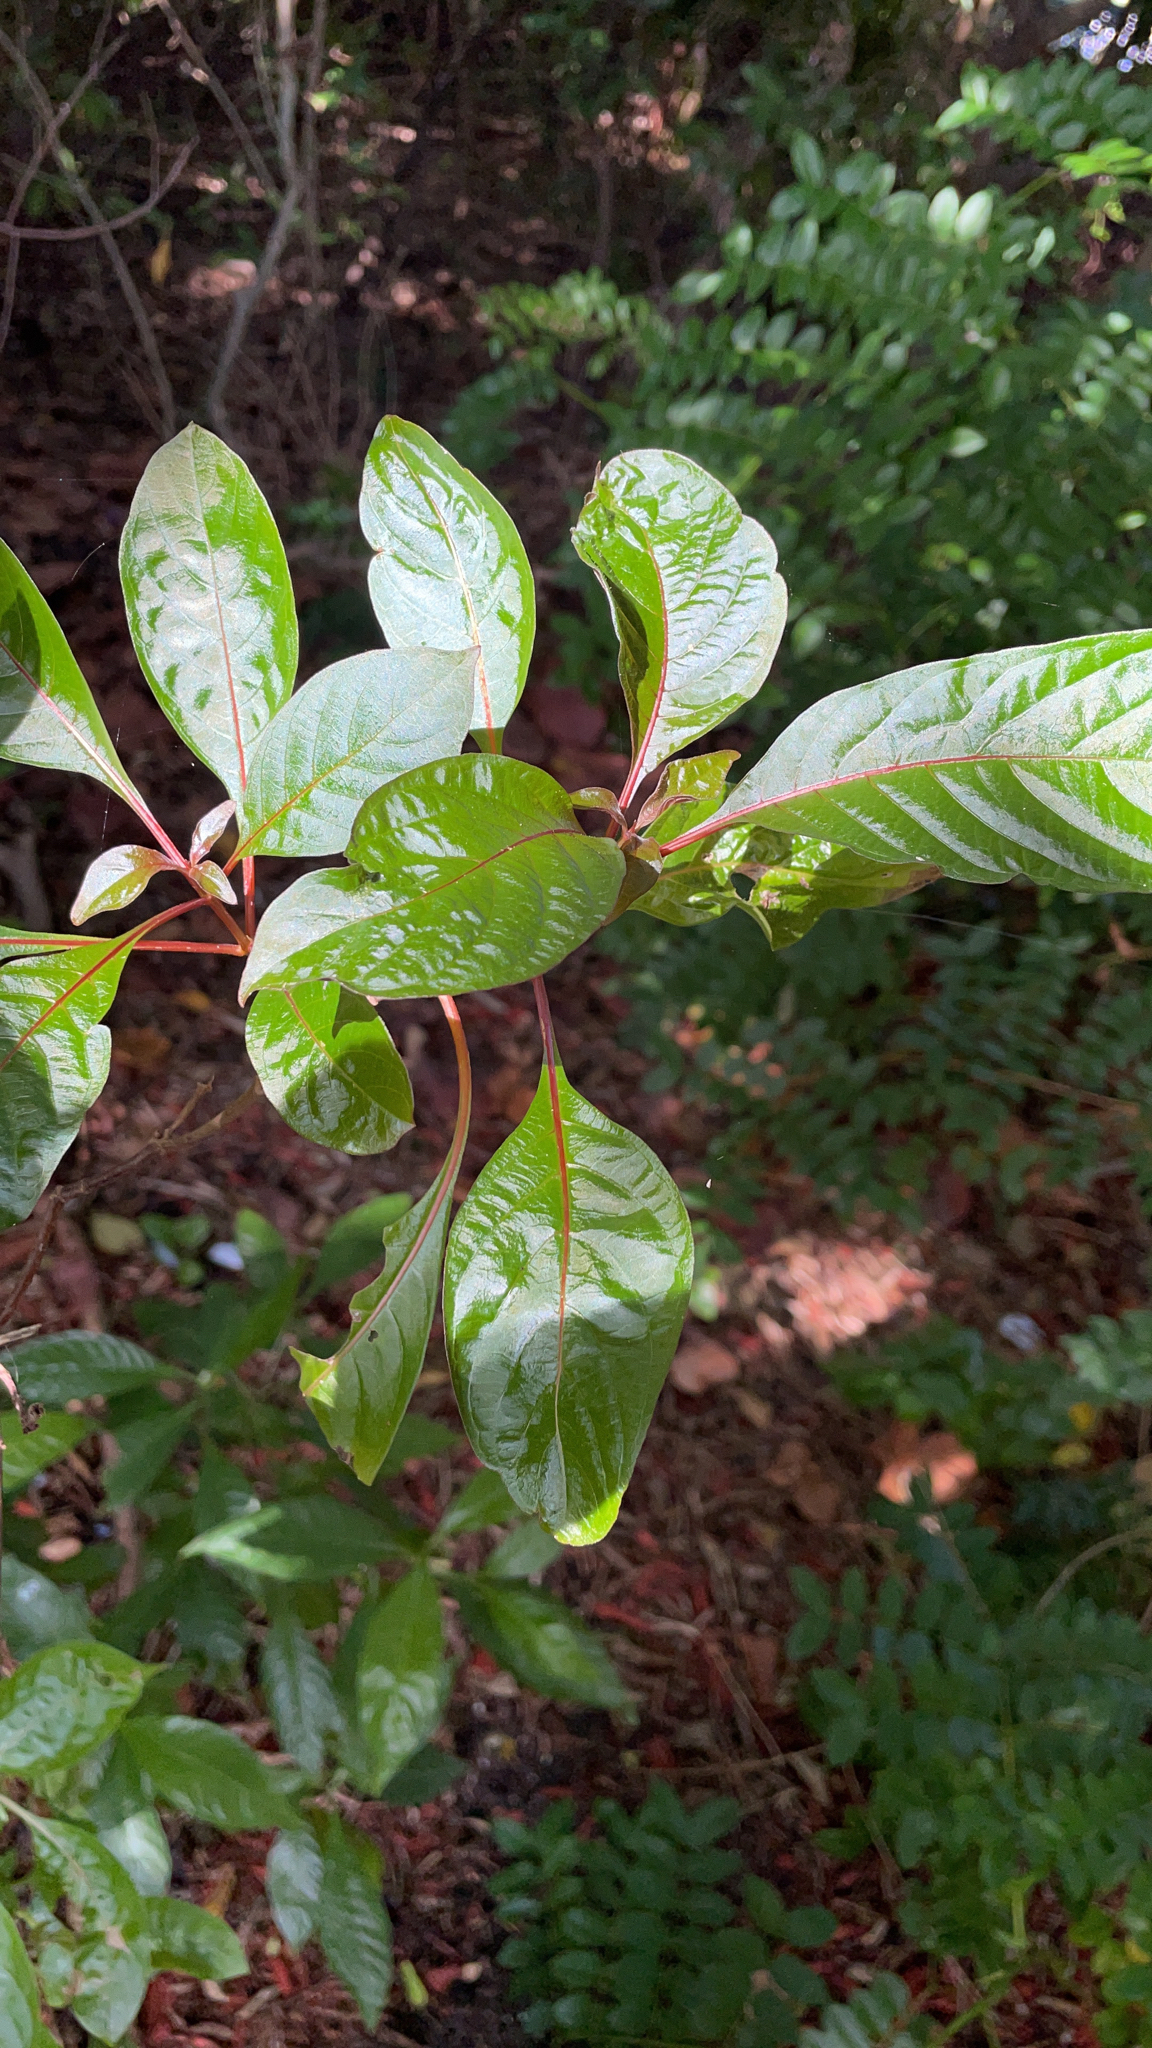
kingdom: Plantae
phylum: Tracheophyta
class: Magnoliopsida
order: Gentianales
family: Rubiaceae
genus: Hamelia
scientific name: Hamelia patens
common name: Redhead
